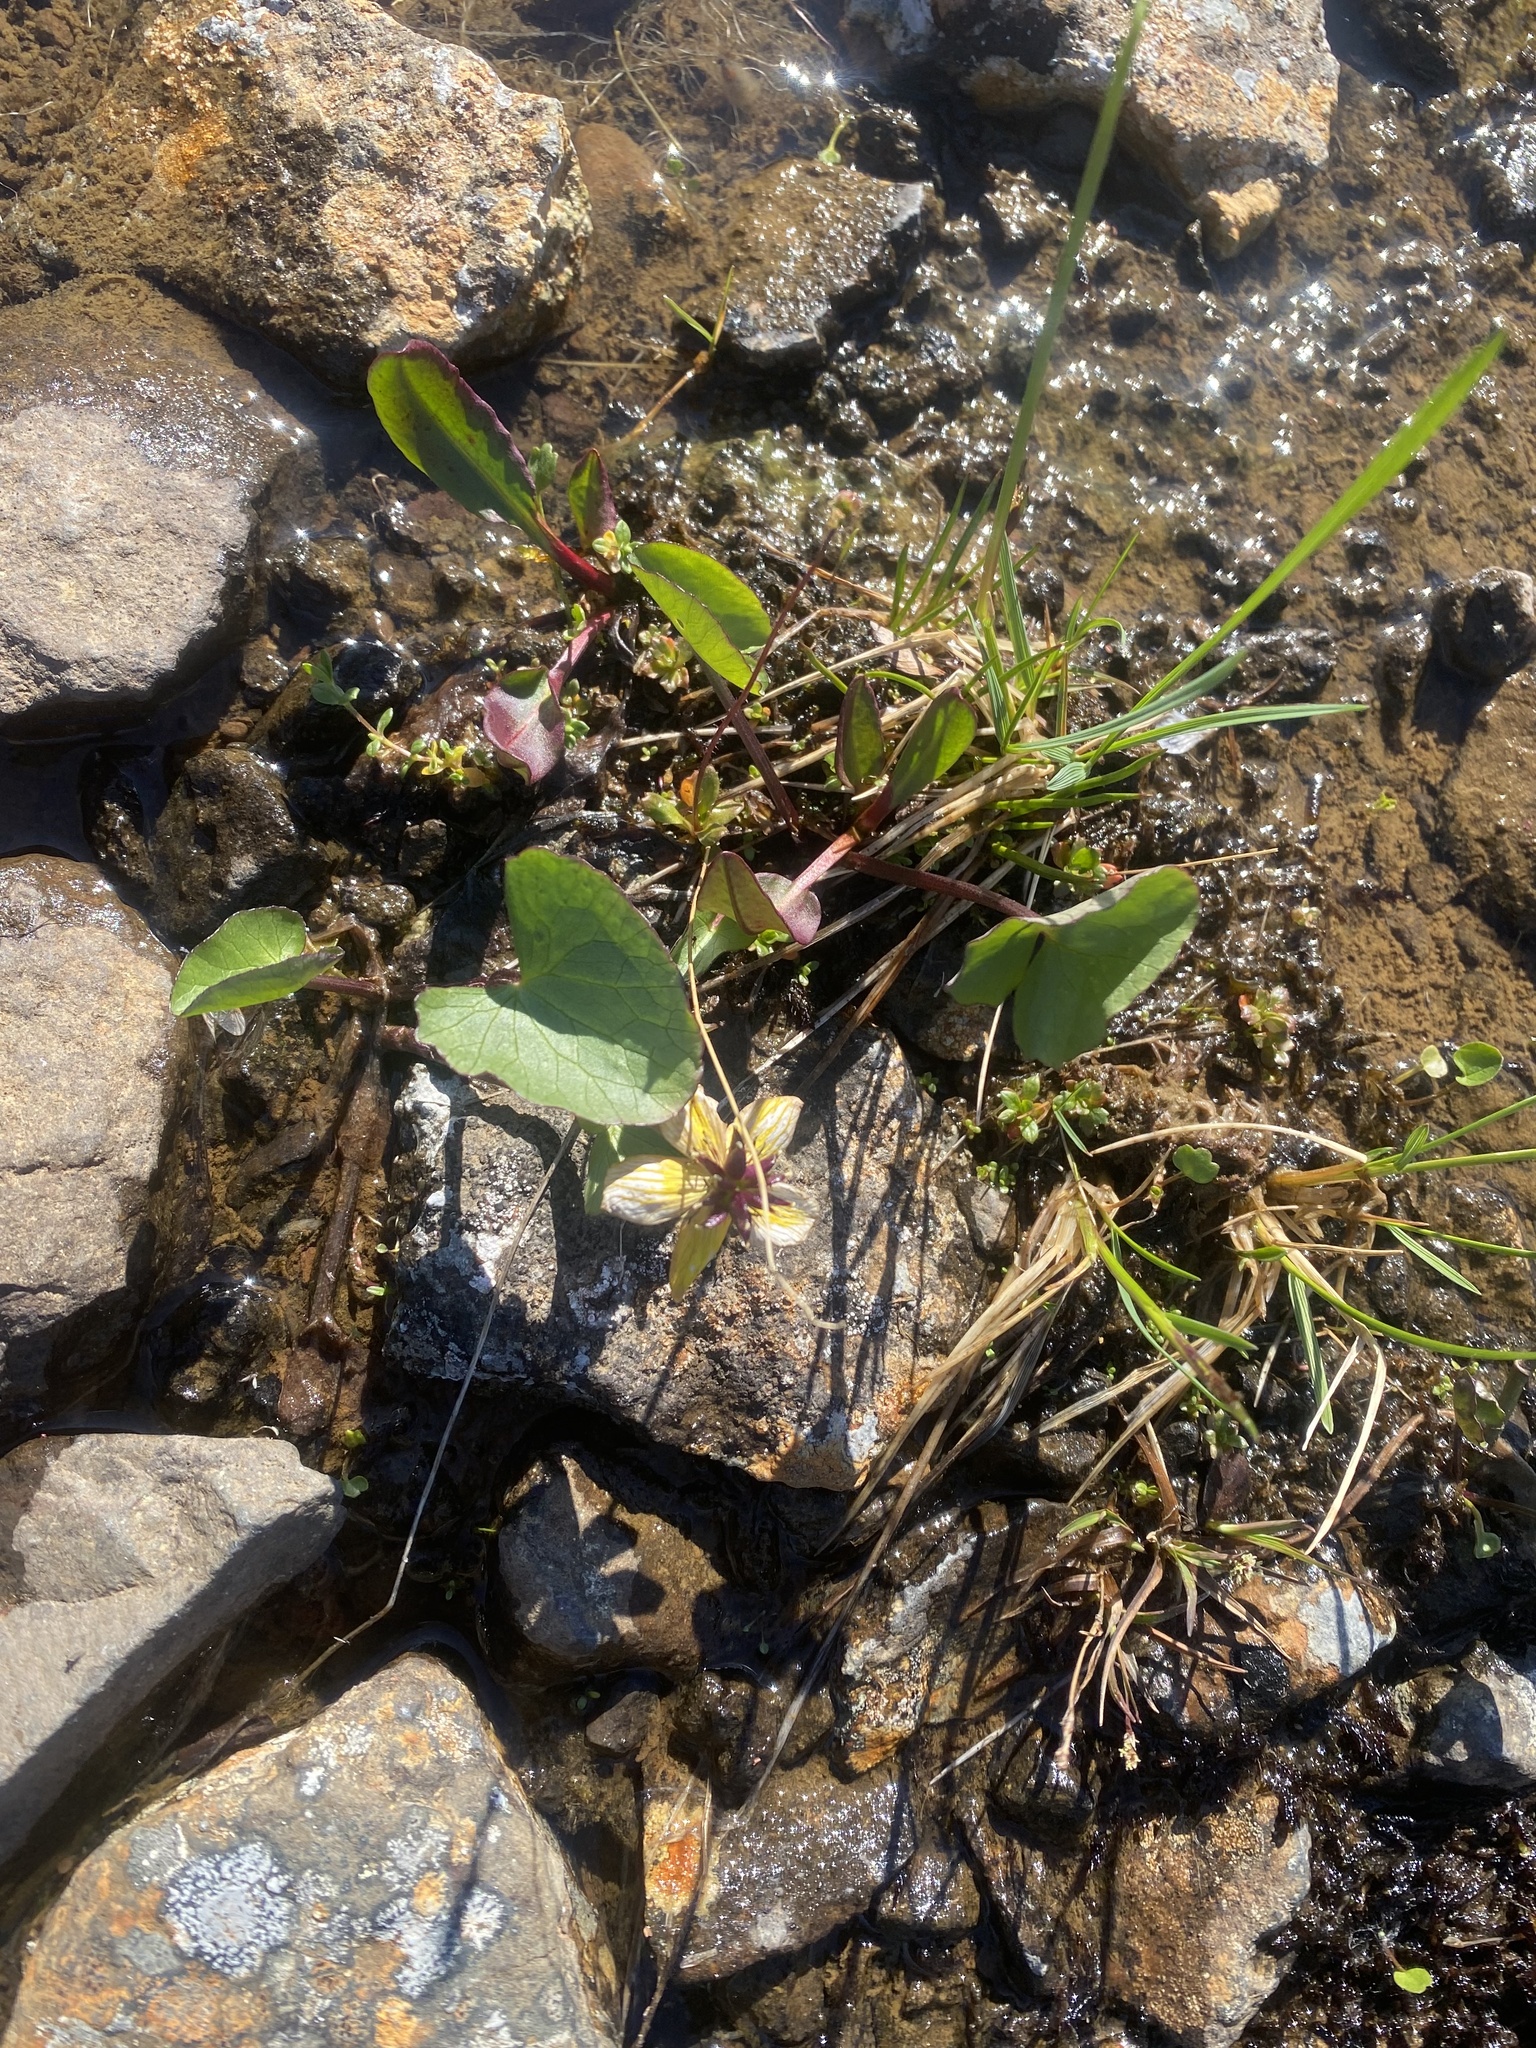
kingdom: Plantae
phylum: Tracheophyta
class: Magnoliopsida
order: Ranunculales
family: Ranunculaceae
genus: Caltha
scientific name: Caltha palustris
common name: Marsh marigold
